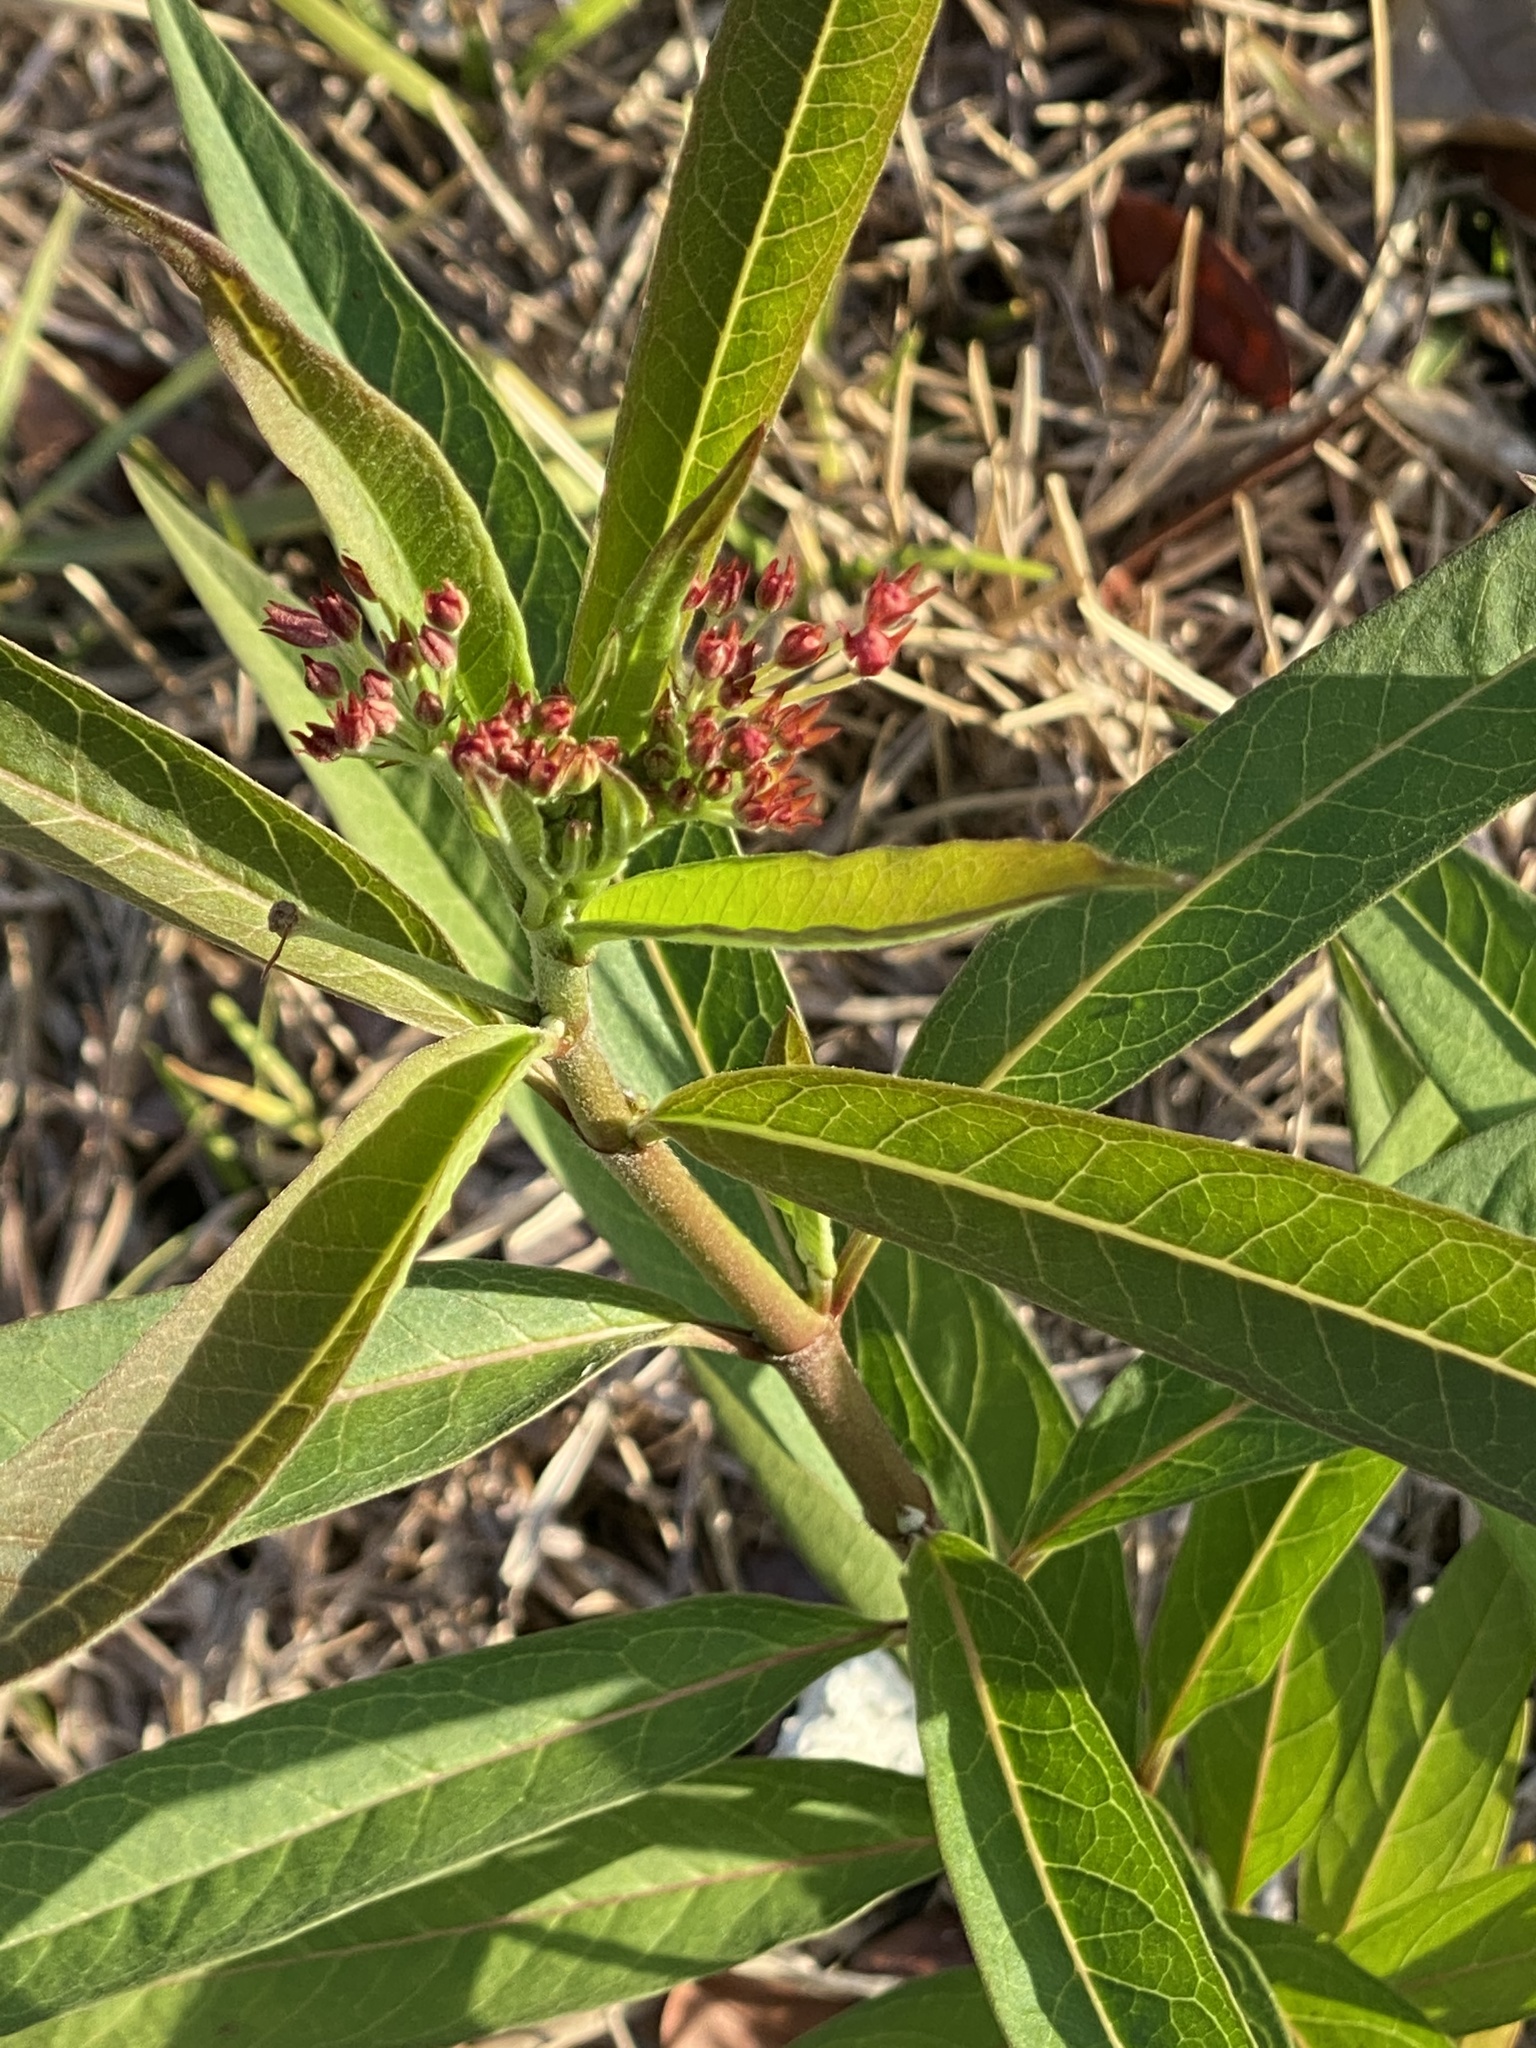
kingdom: Plantae
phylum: Tracheophyta
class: Magnoliopsida
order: Gentianales
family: Apocynaceae
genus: Asclepias
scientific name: Asclepias curassavica
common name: Bloodflower
